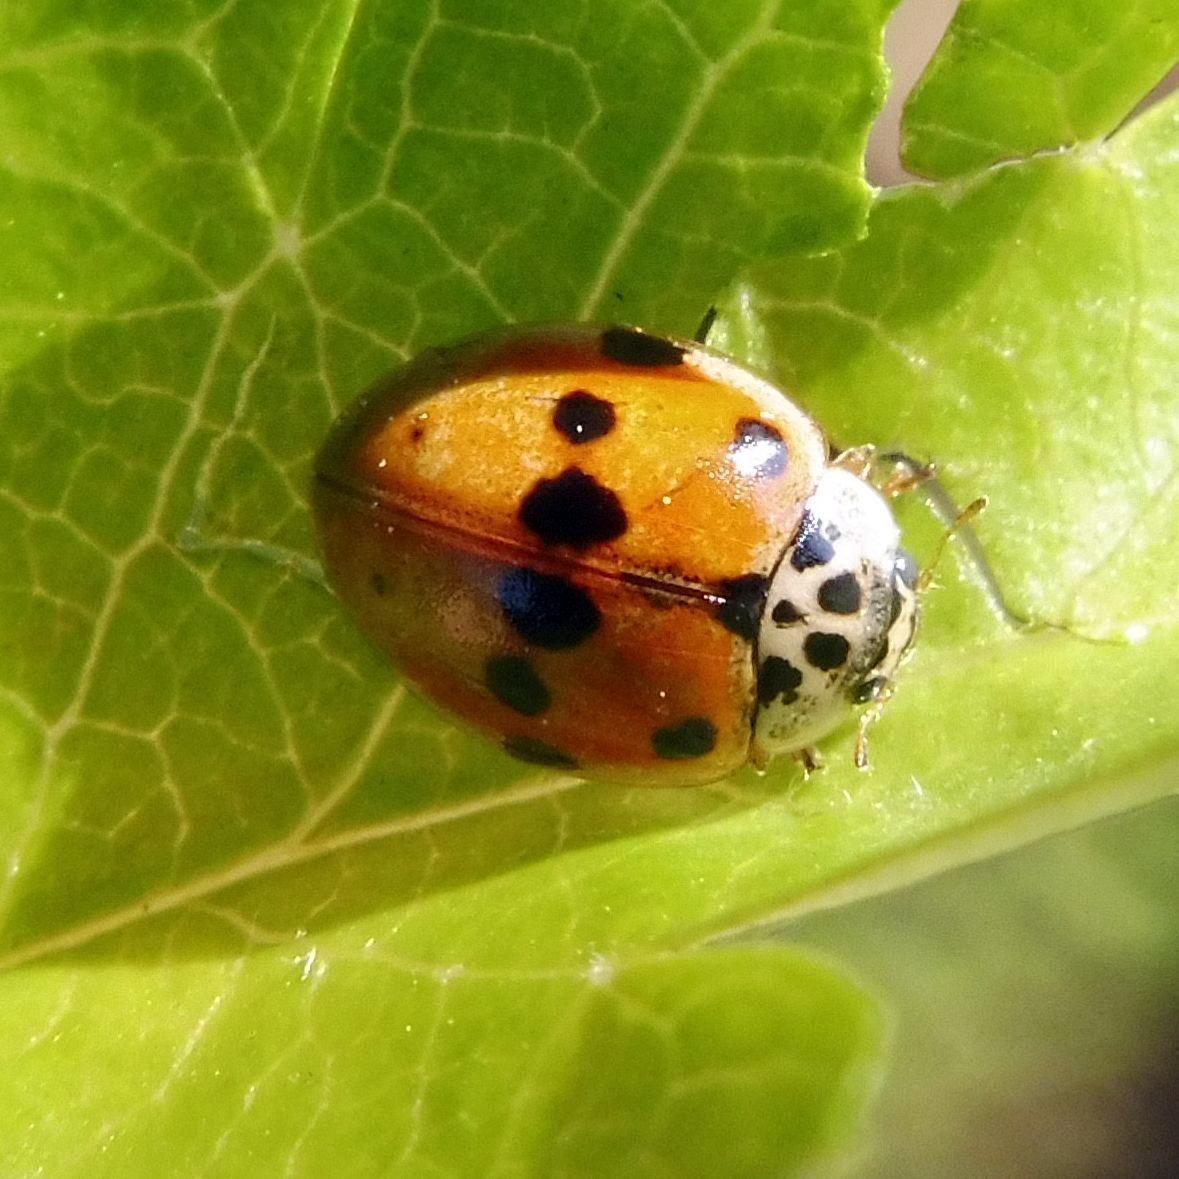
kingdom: Animalia
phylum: Arthropoda
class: Insecta
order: Coleoptera
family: Coccinellidae
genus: Adalia
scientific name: Adalia decempunctata
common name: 10-spot ladybird
